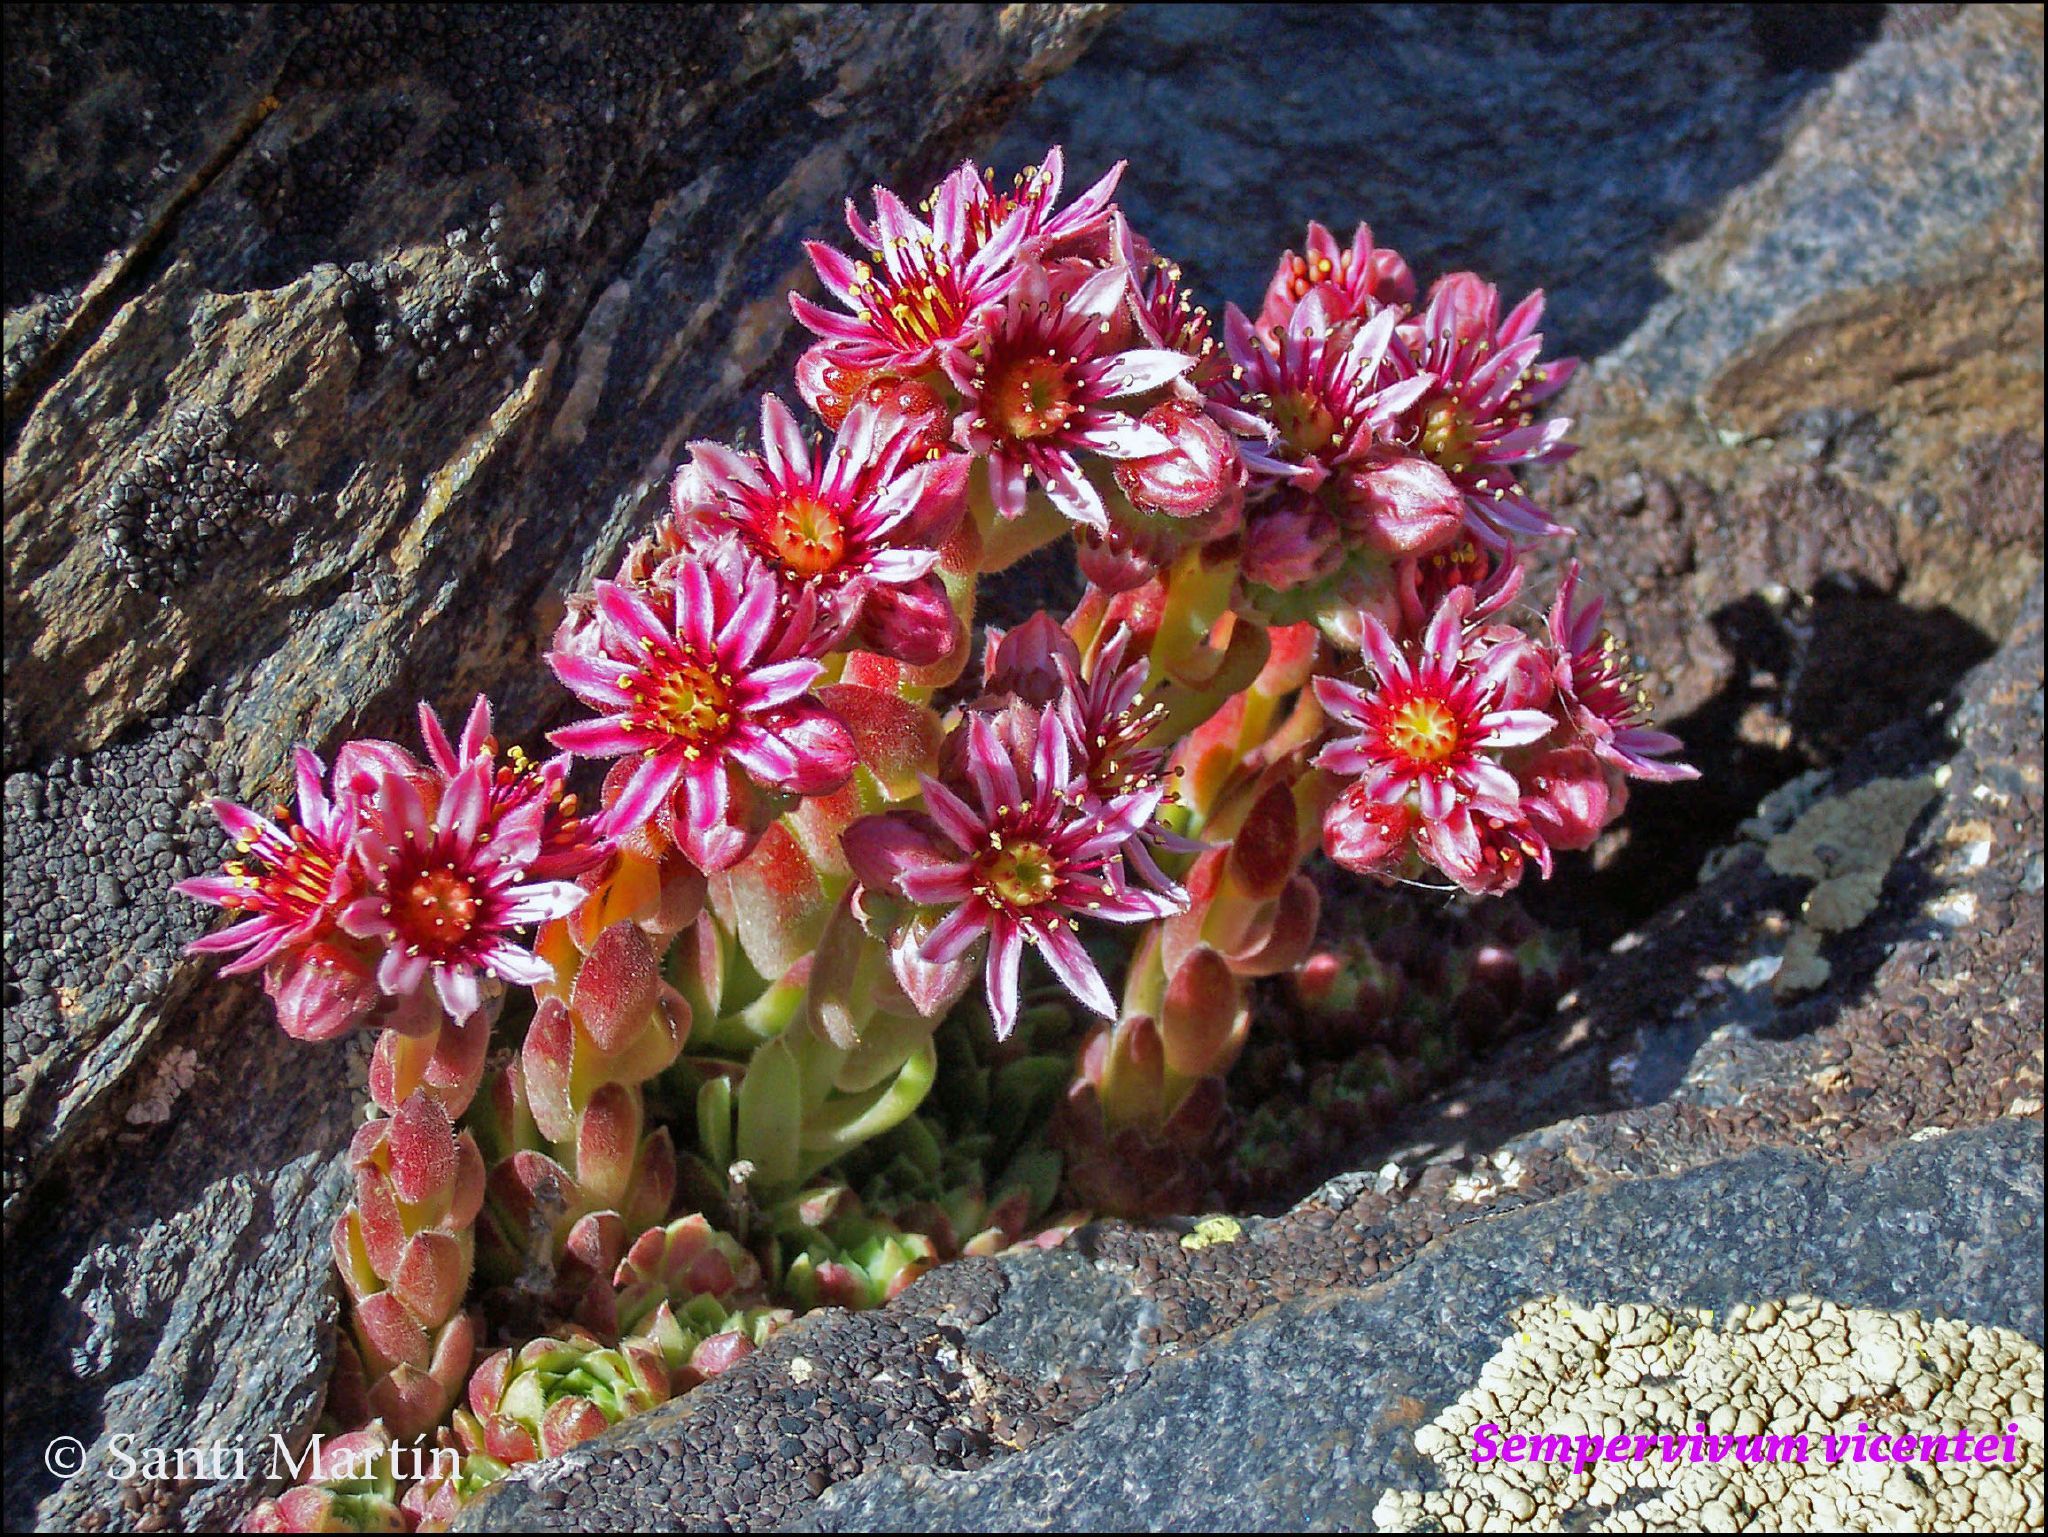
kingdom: Plantae
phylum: Tracheophyta
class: Magnoliopsida
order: Saxifragales
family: Crassulaceae
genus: Sempervivum
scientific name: Sempervivum minutum
